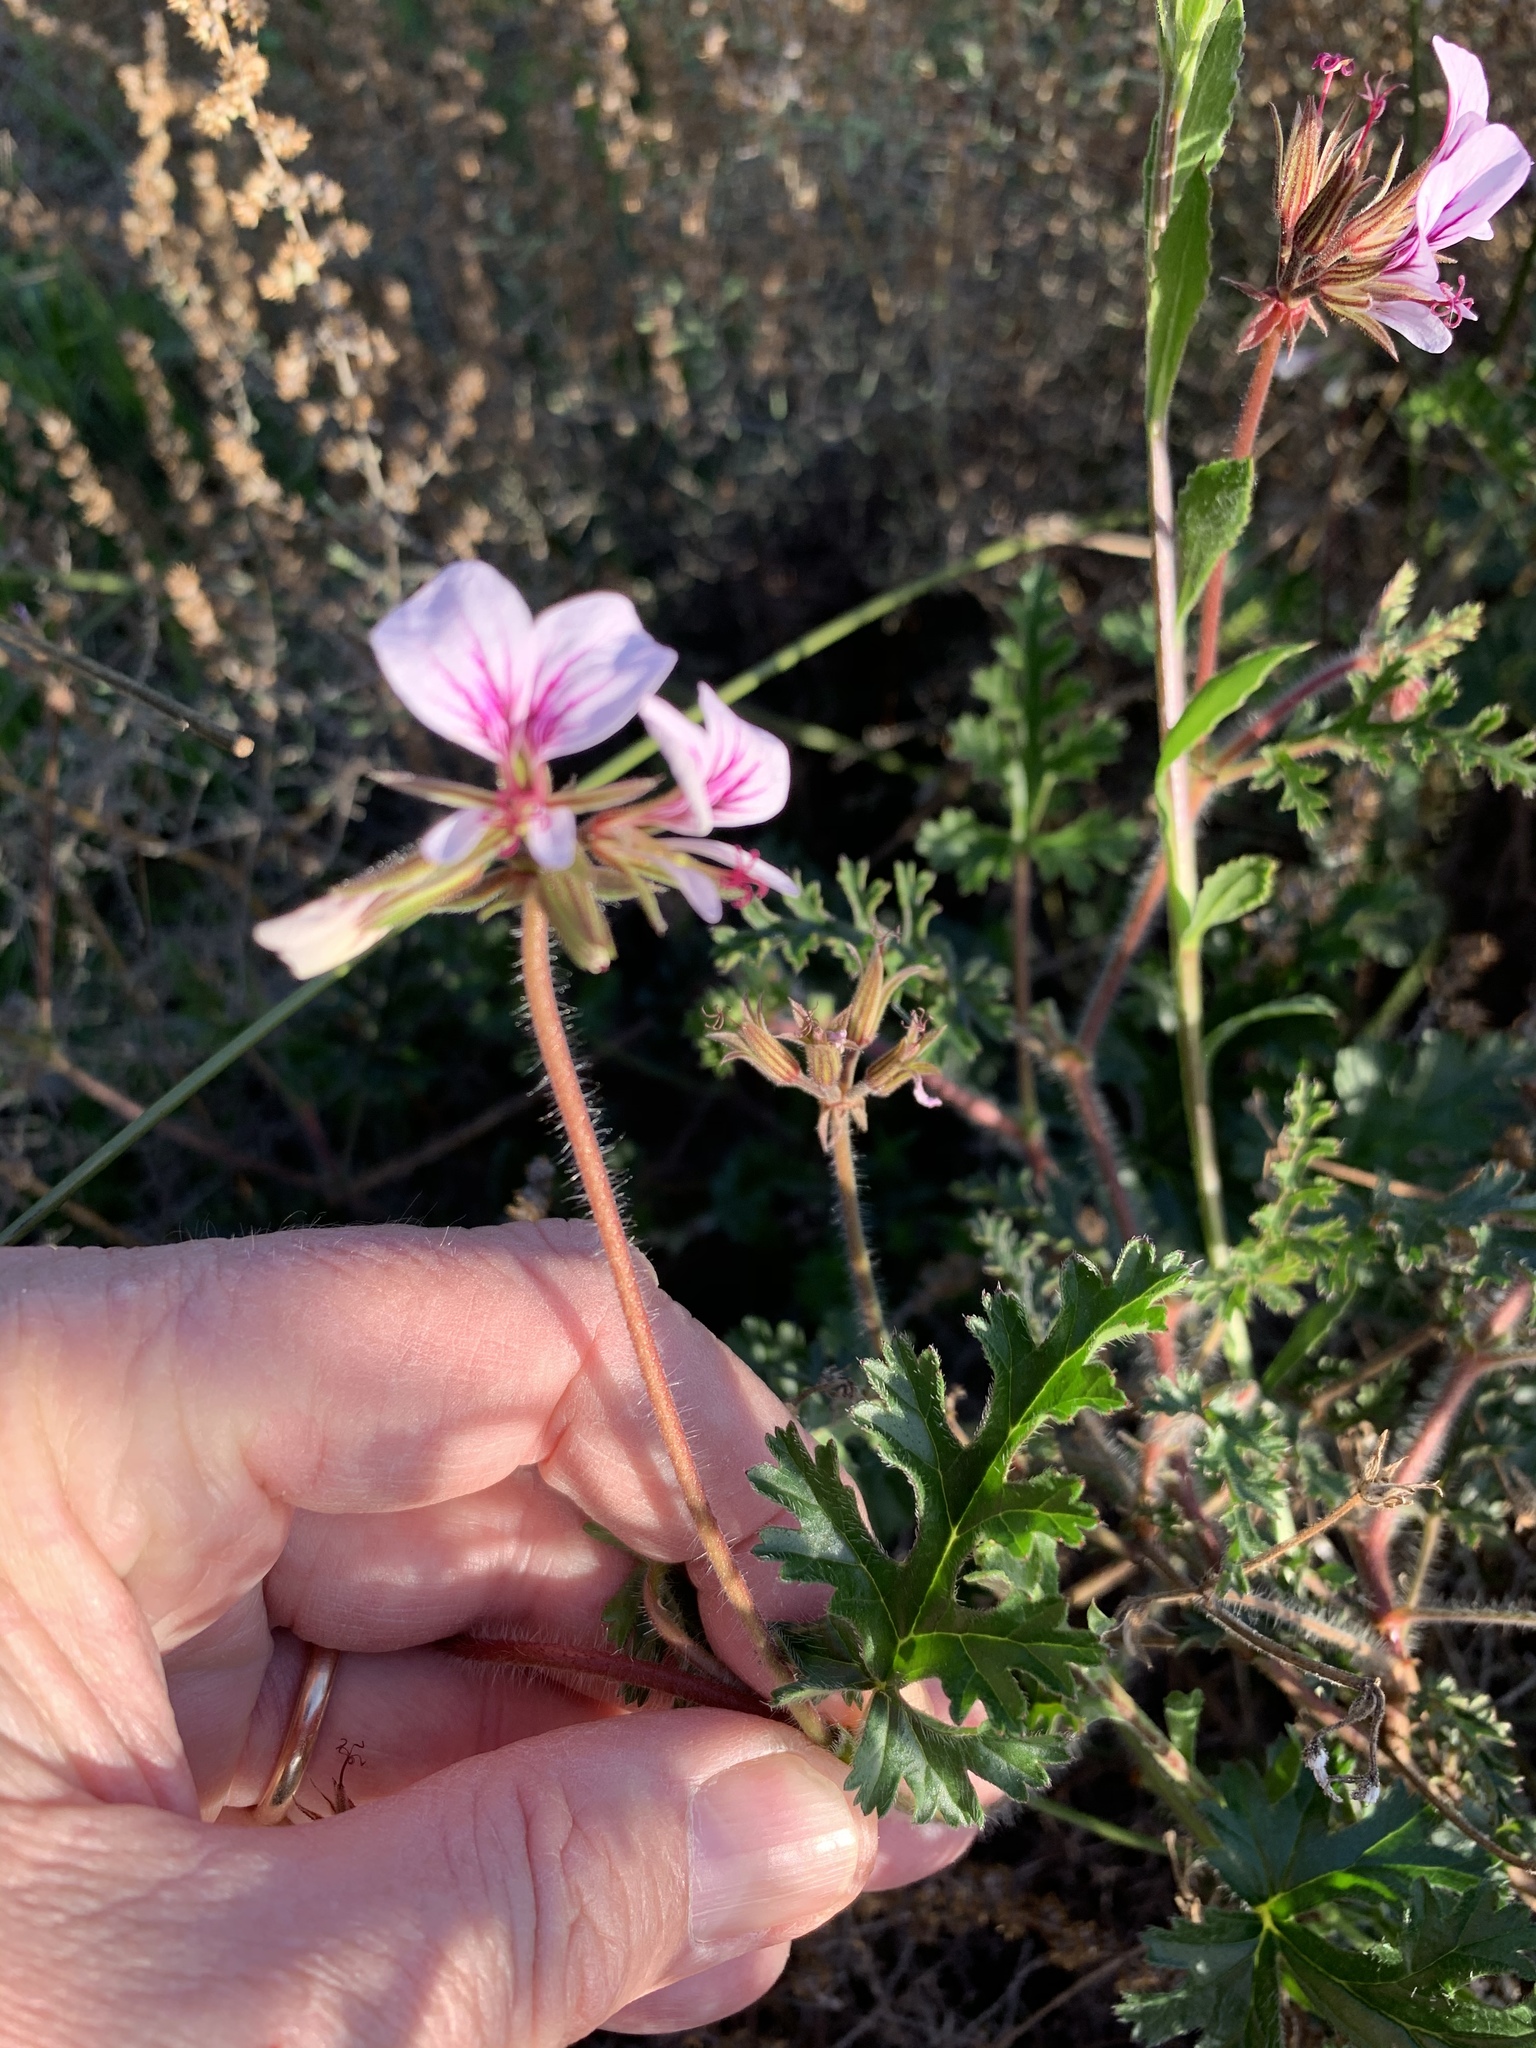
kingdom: Plantae
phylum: Tracheophyta
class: Magnoliopsida
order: Geraniales
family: Geraniaceae
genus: Pelargonium
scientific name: Pelargonium myrrhifolium
